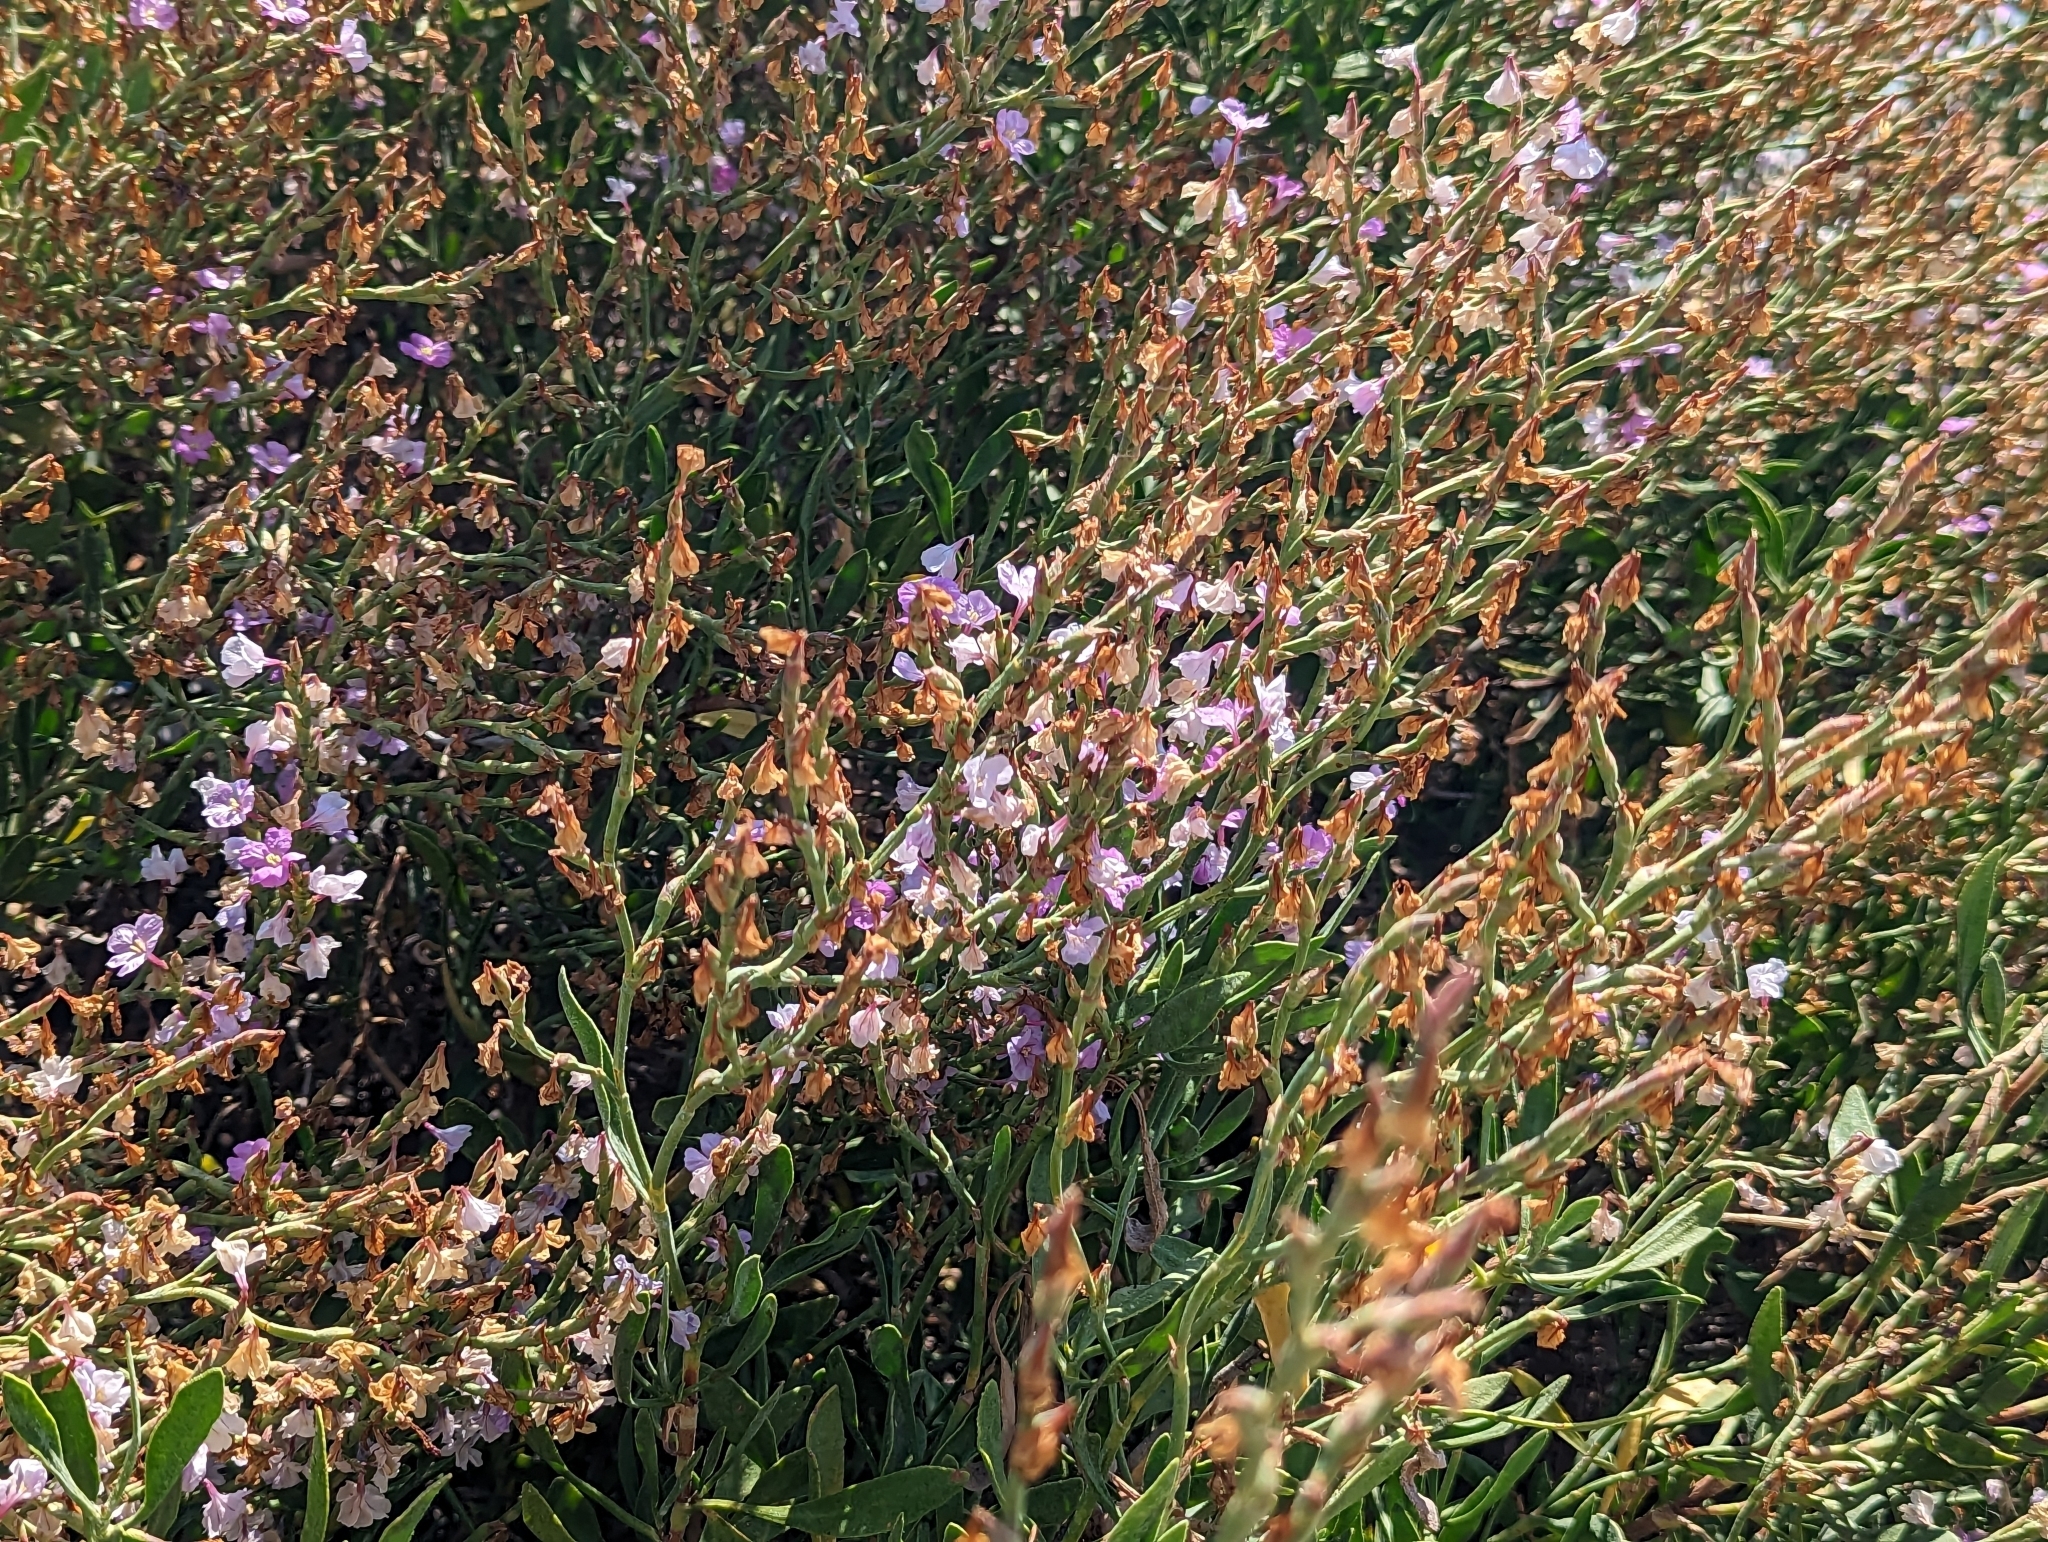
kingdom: Plantae
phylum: Tracheophyta
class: Magnoliopsida
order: Caryophyllales
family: Plumbaginaceae
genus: Limoniastrum
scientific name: Limoniastrum monopetalum
